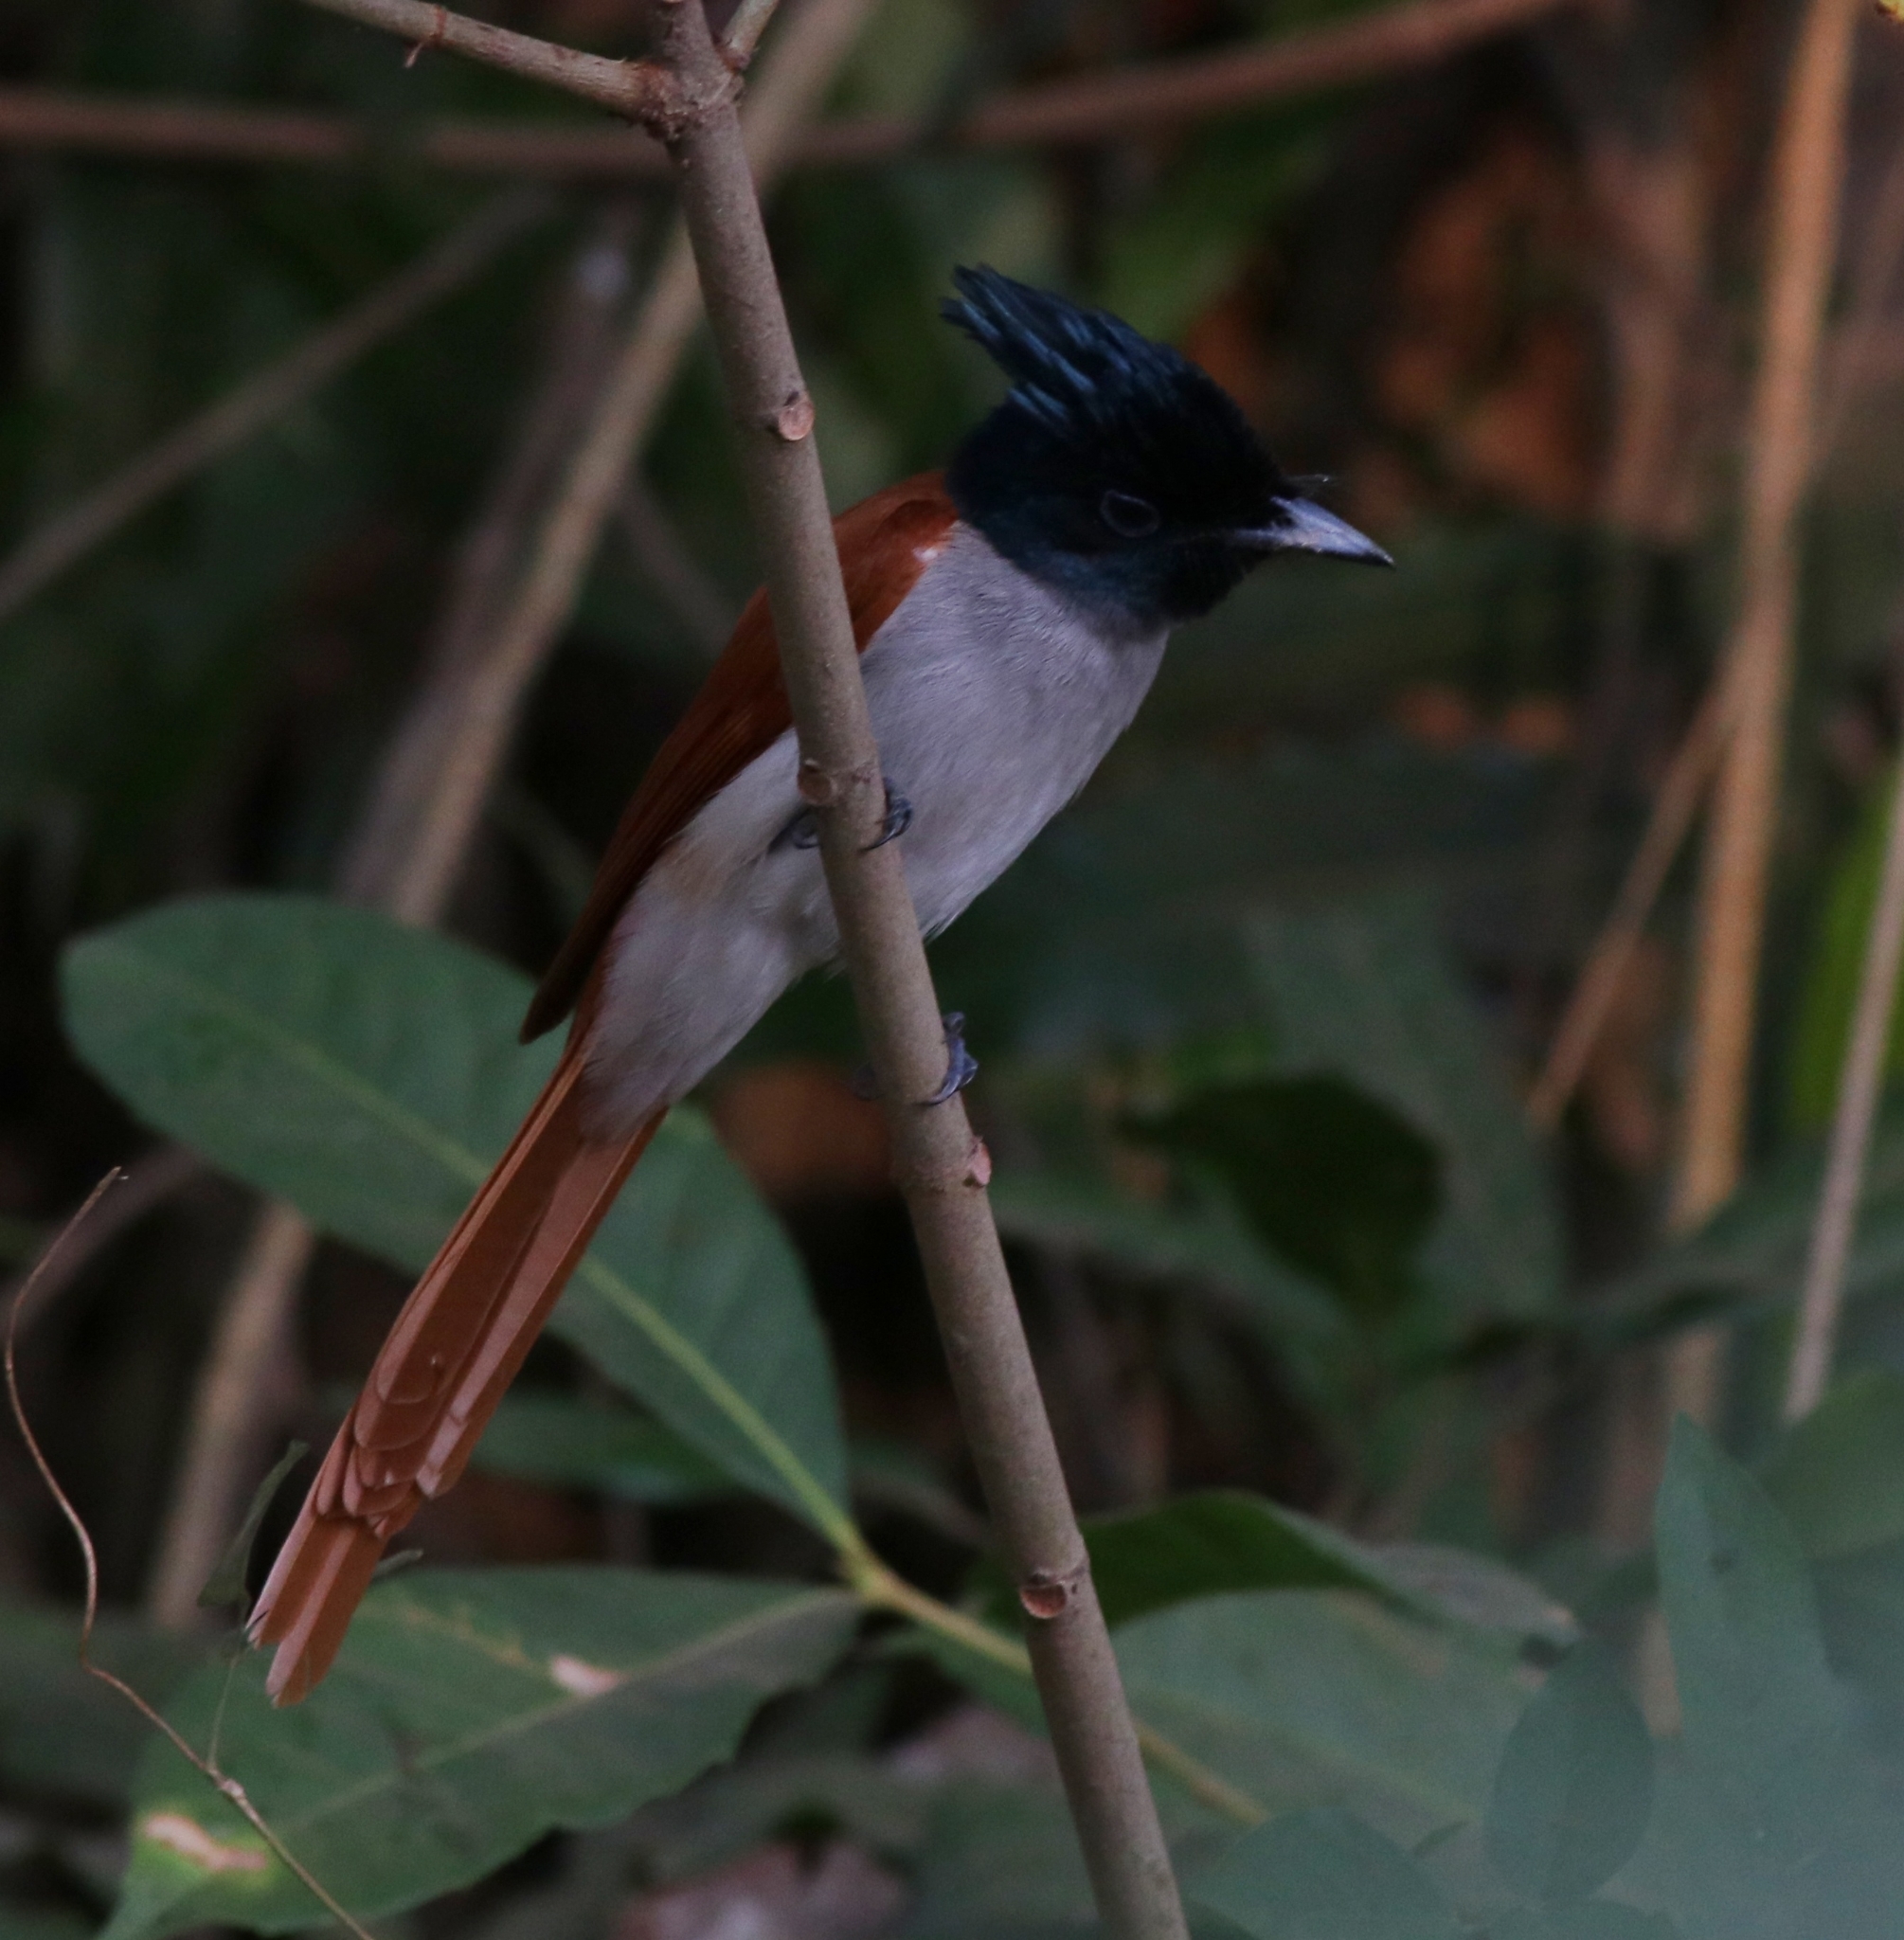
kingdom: Animalia
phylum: Chordata
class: Aves
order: Passeriformes
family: Monarchidae
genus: Terpsiphone
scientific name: Terpsiphone paradisi
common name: Indian paradise flycatcher
